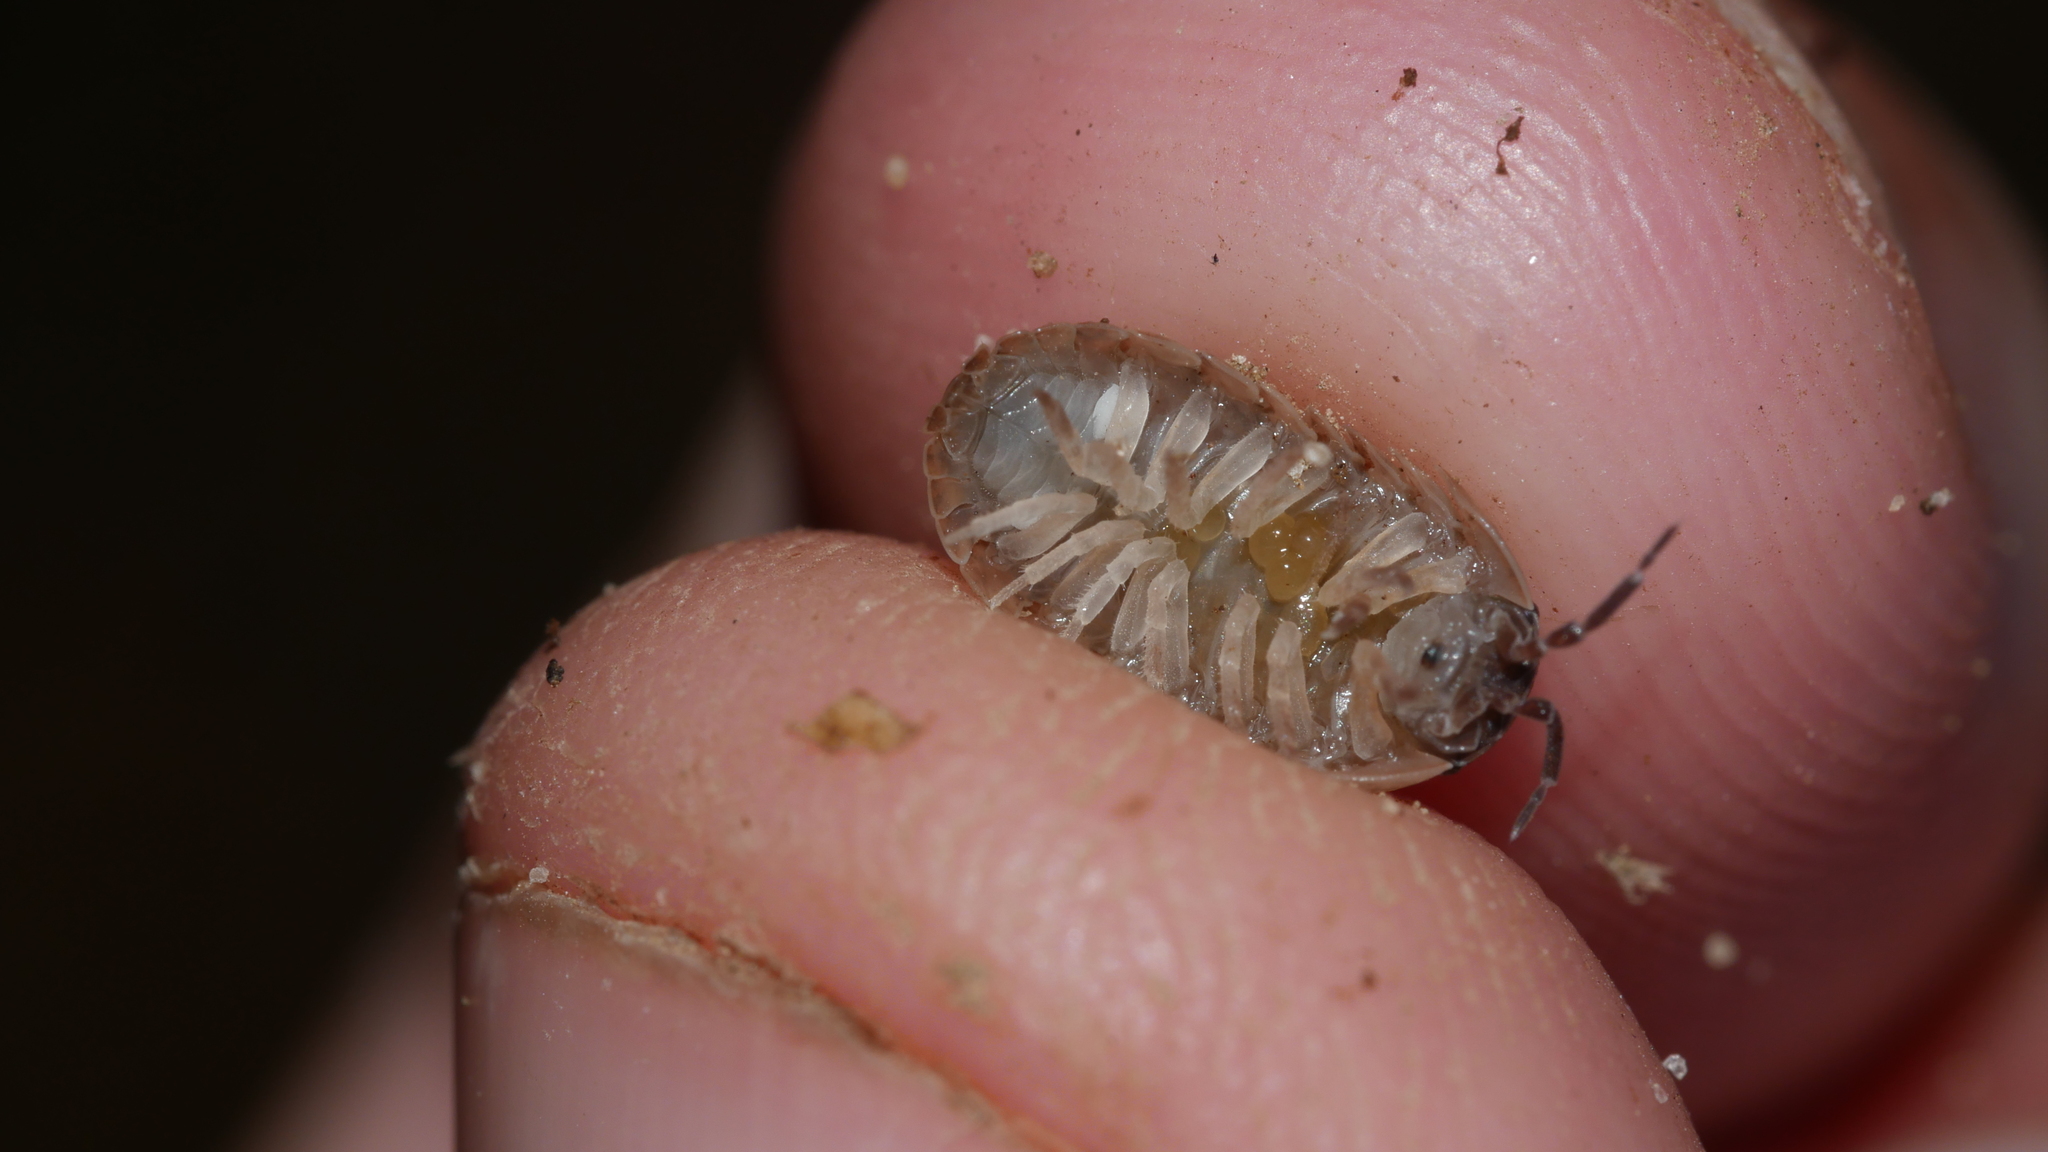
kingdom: Animalia
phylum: Arthropoda
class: Malacostraca
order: Isopoda
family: Armadillidiidae
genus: Armadillidium
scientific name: Armadillidium vulgare
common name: Common pill woodlouse
